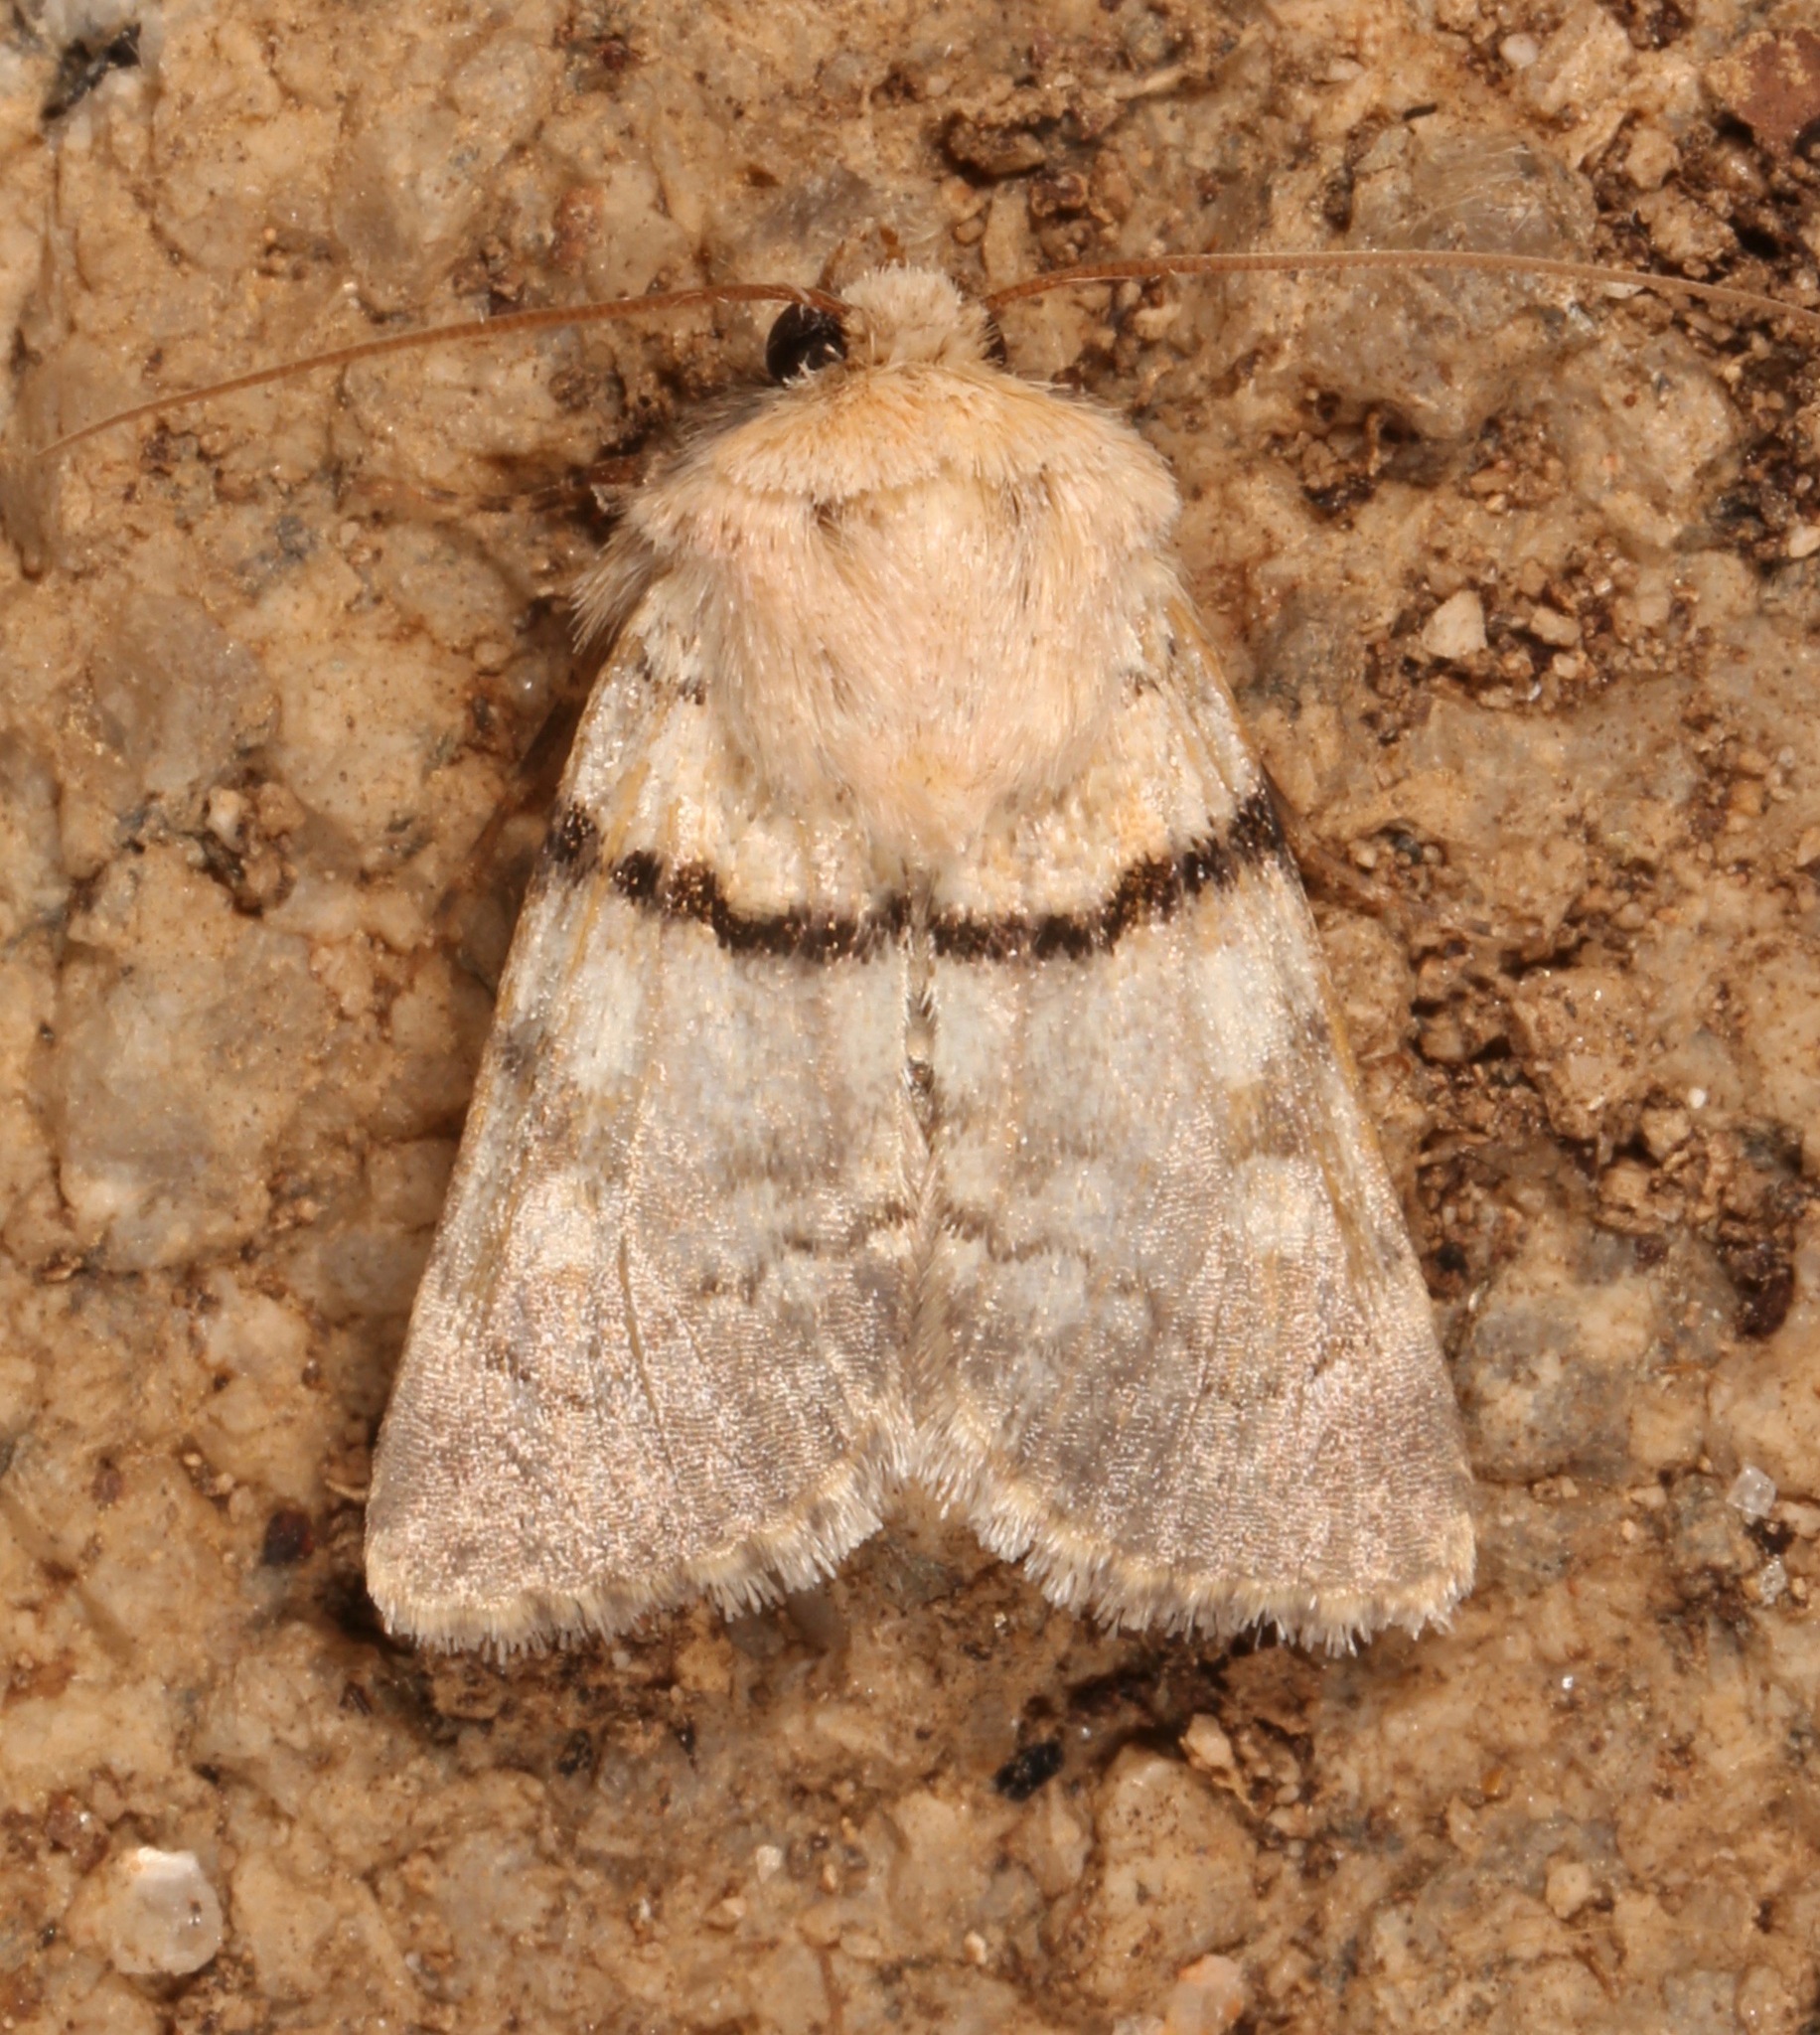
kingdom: Animalia
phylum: Arthropoda
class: Insecta
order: Lepidoptera
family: Noctuidae
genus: Sympistis
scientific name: Sympistis rosea
